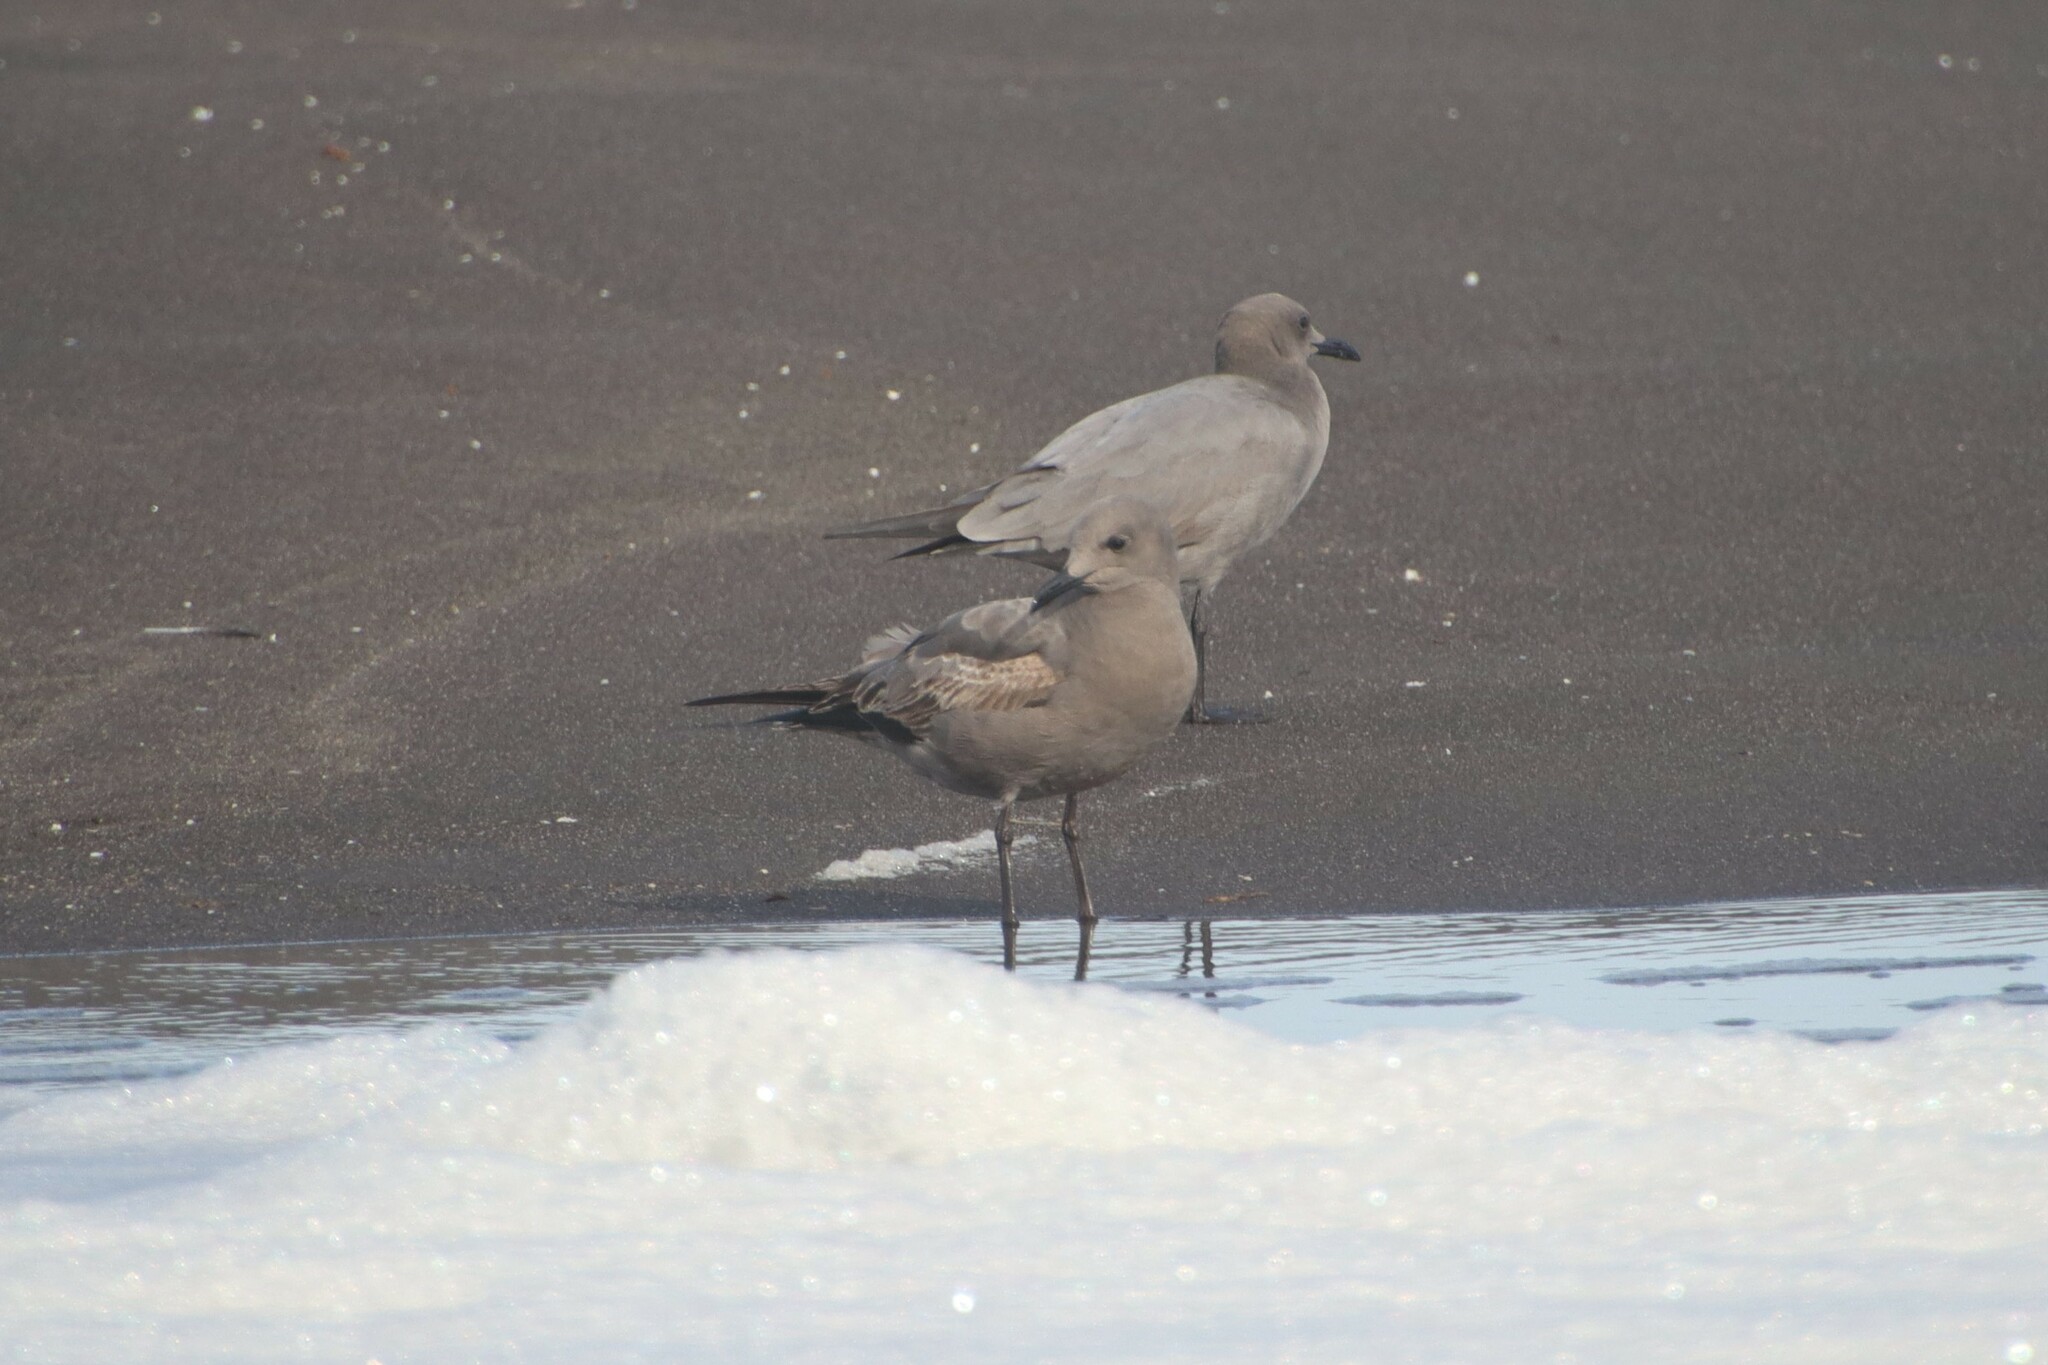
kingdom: Animalia
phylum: Chordata
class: Aves
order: Charadriiformes
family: Laridae
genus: Leucophaeus
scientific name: Leucophaeus modestus
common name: Gray gull
